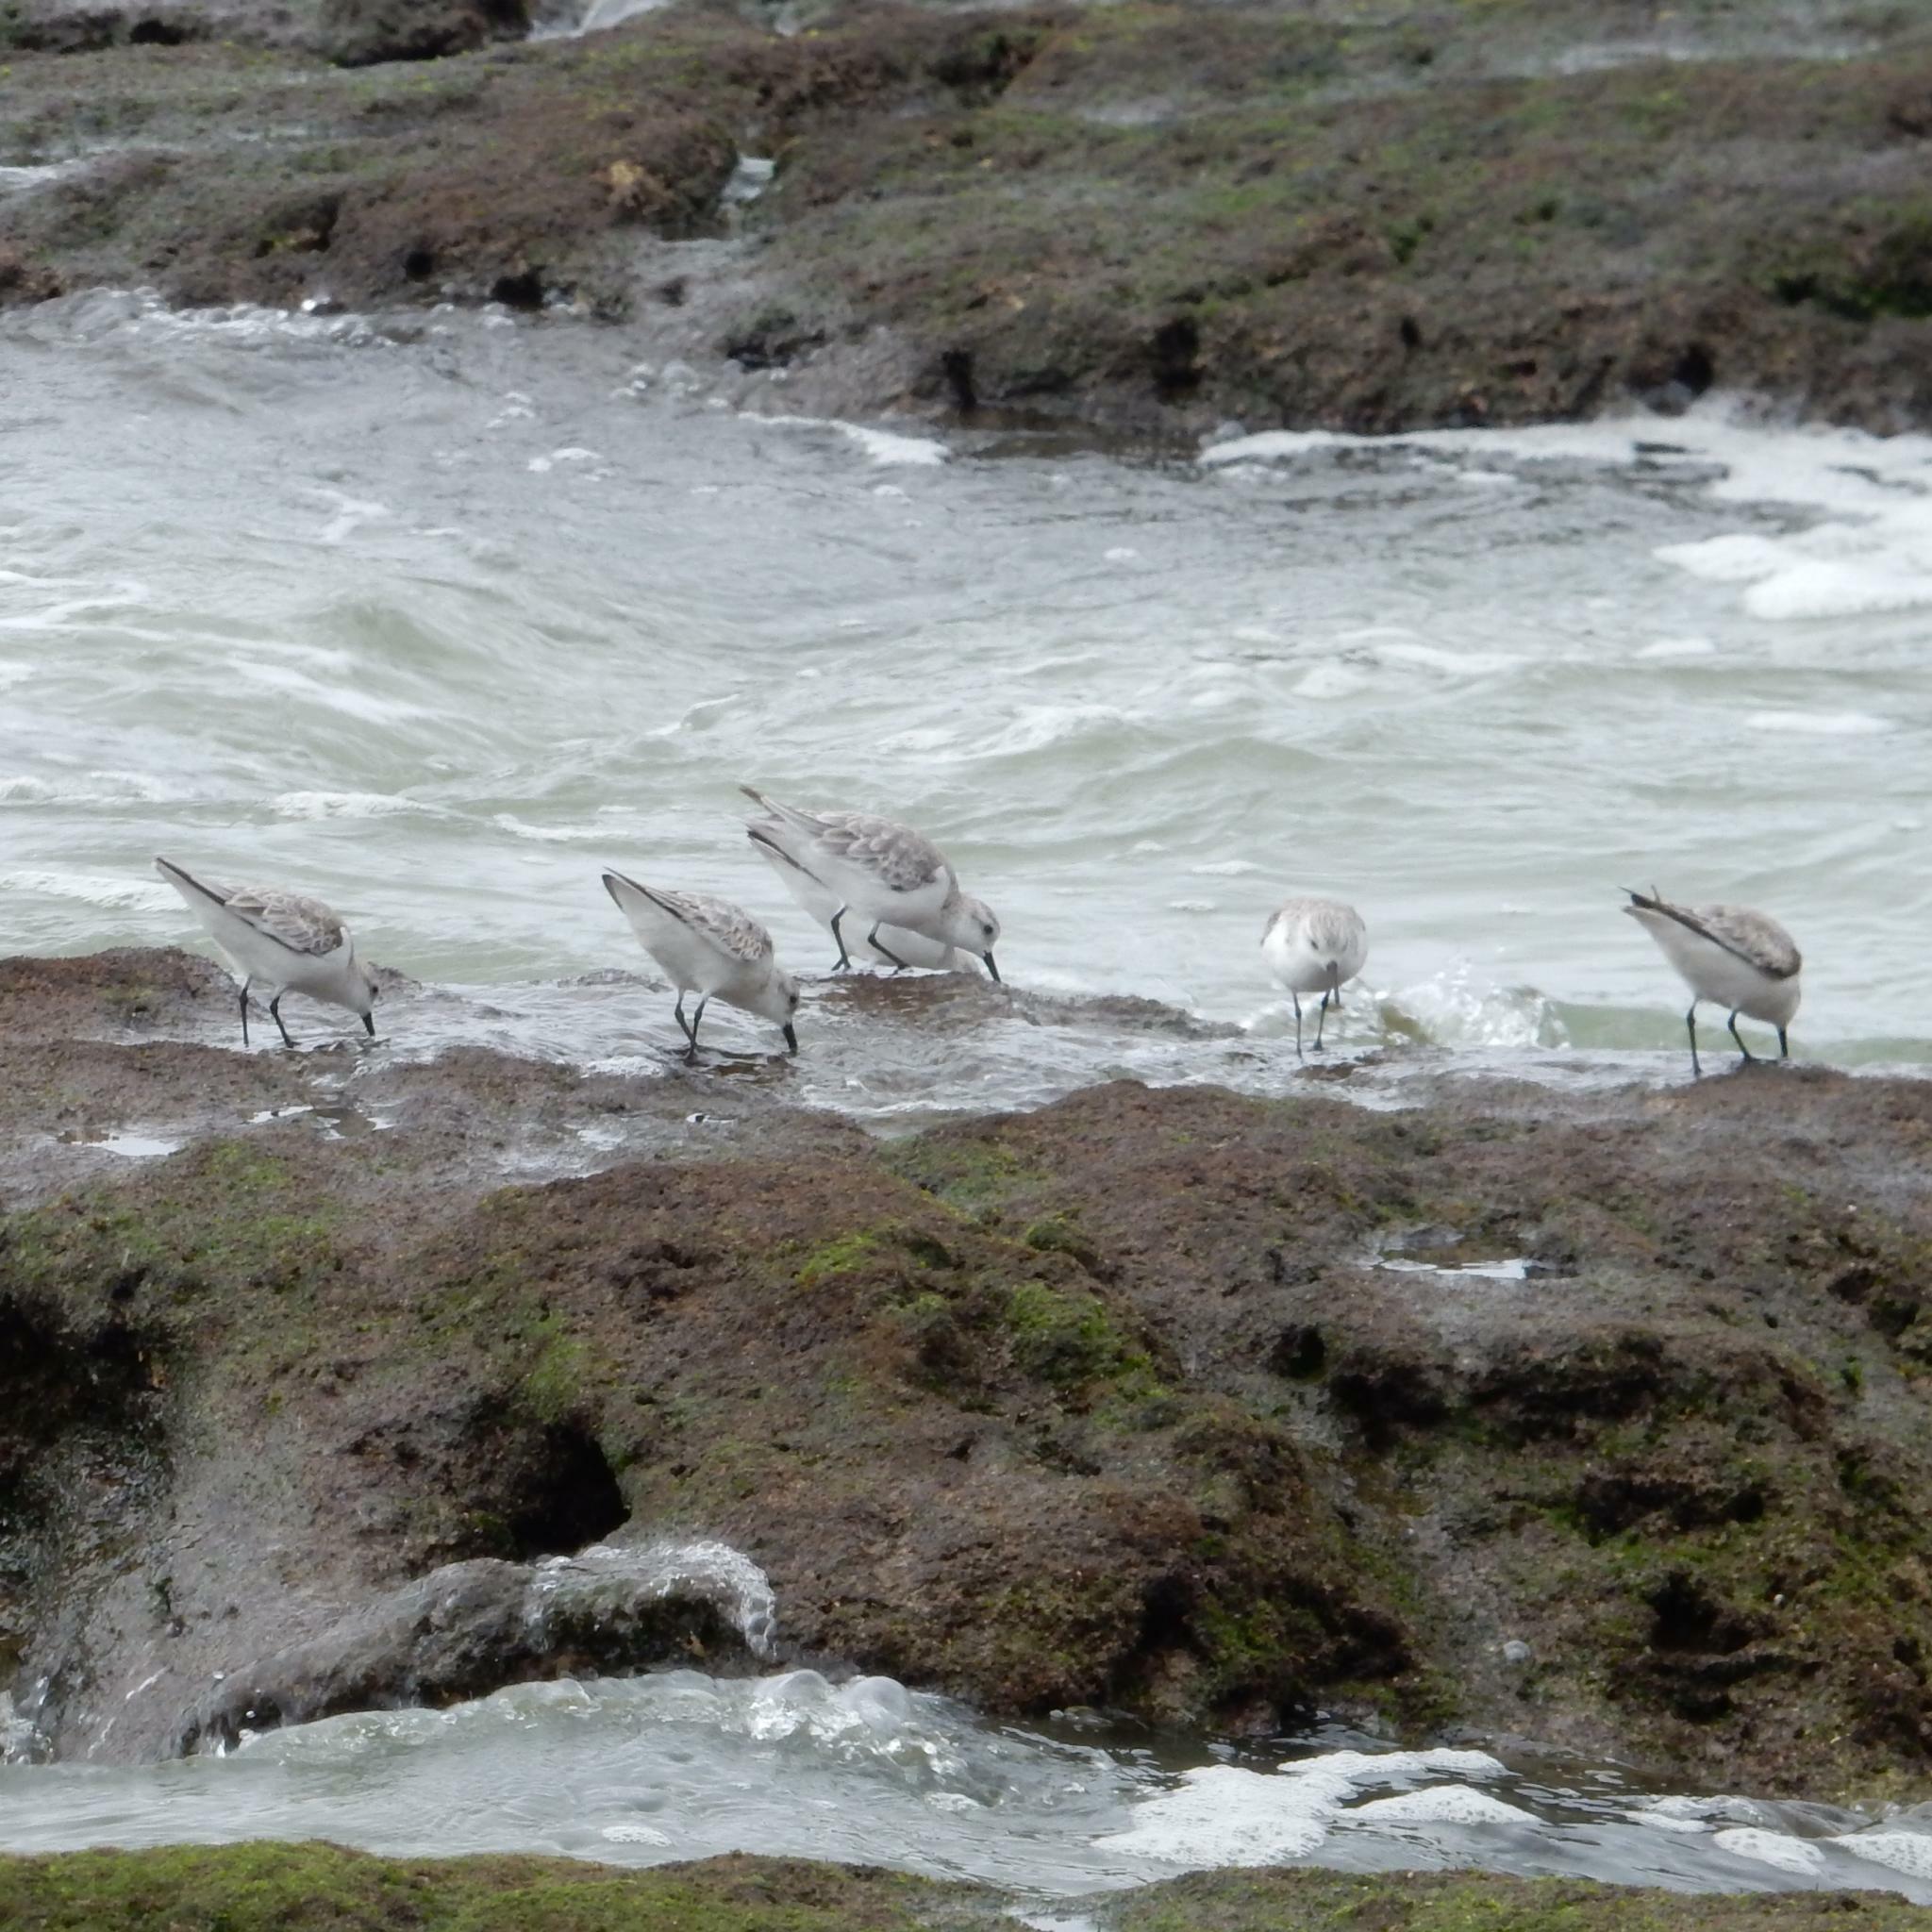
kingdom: Animalia
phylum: Chordata
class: Aves
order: Charadriiformes
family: Scolopacidae
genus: Calidris
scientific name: Calidris alba
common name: Sanderling
